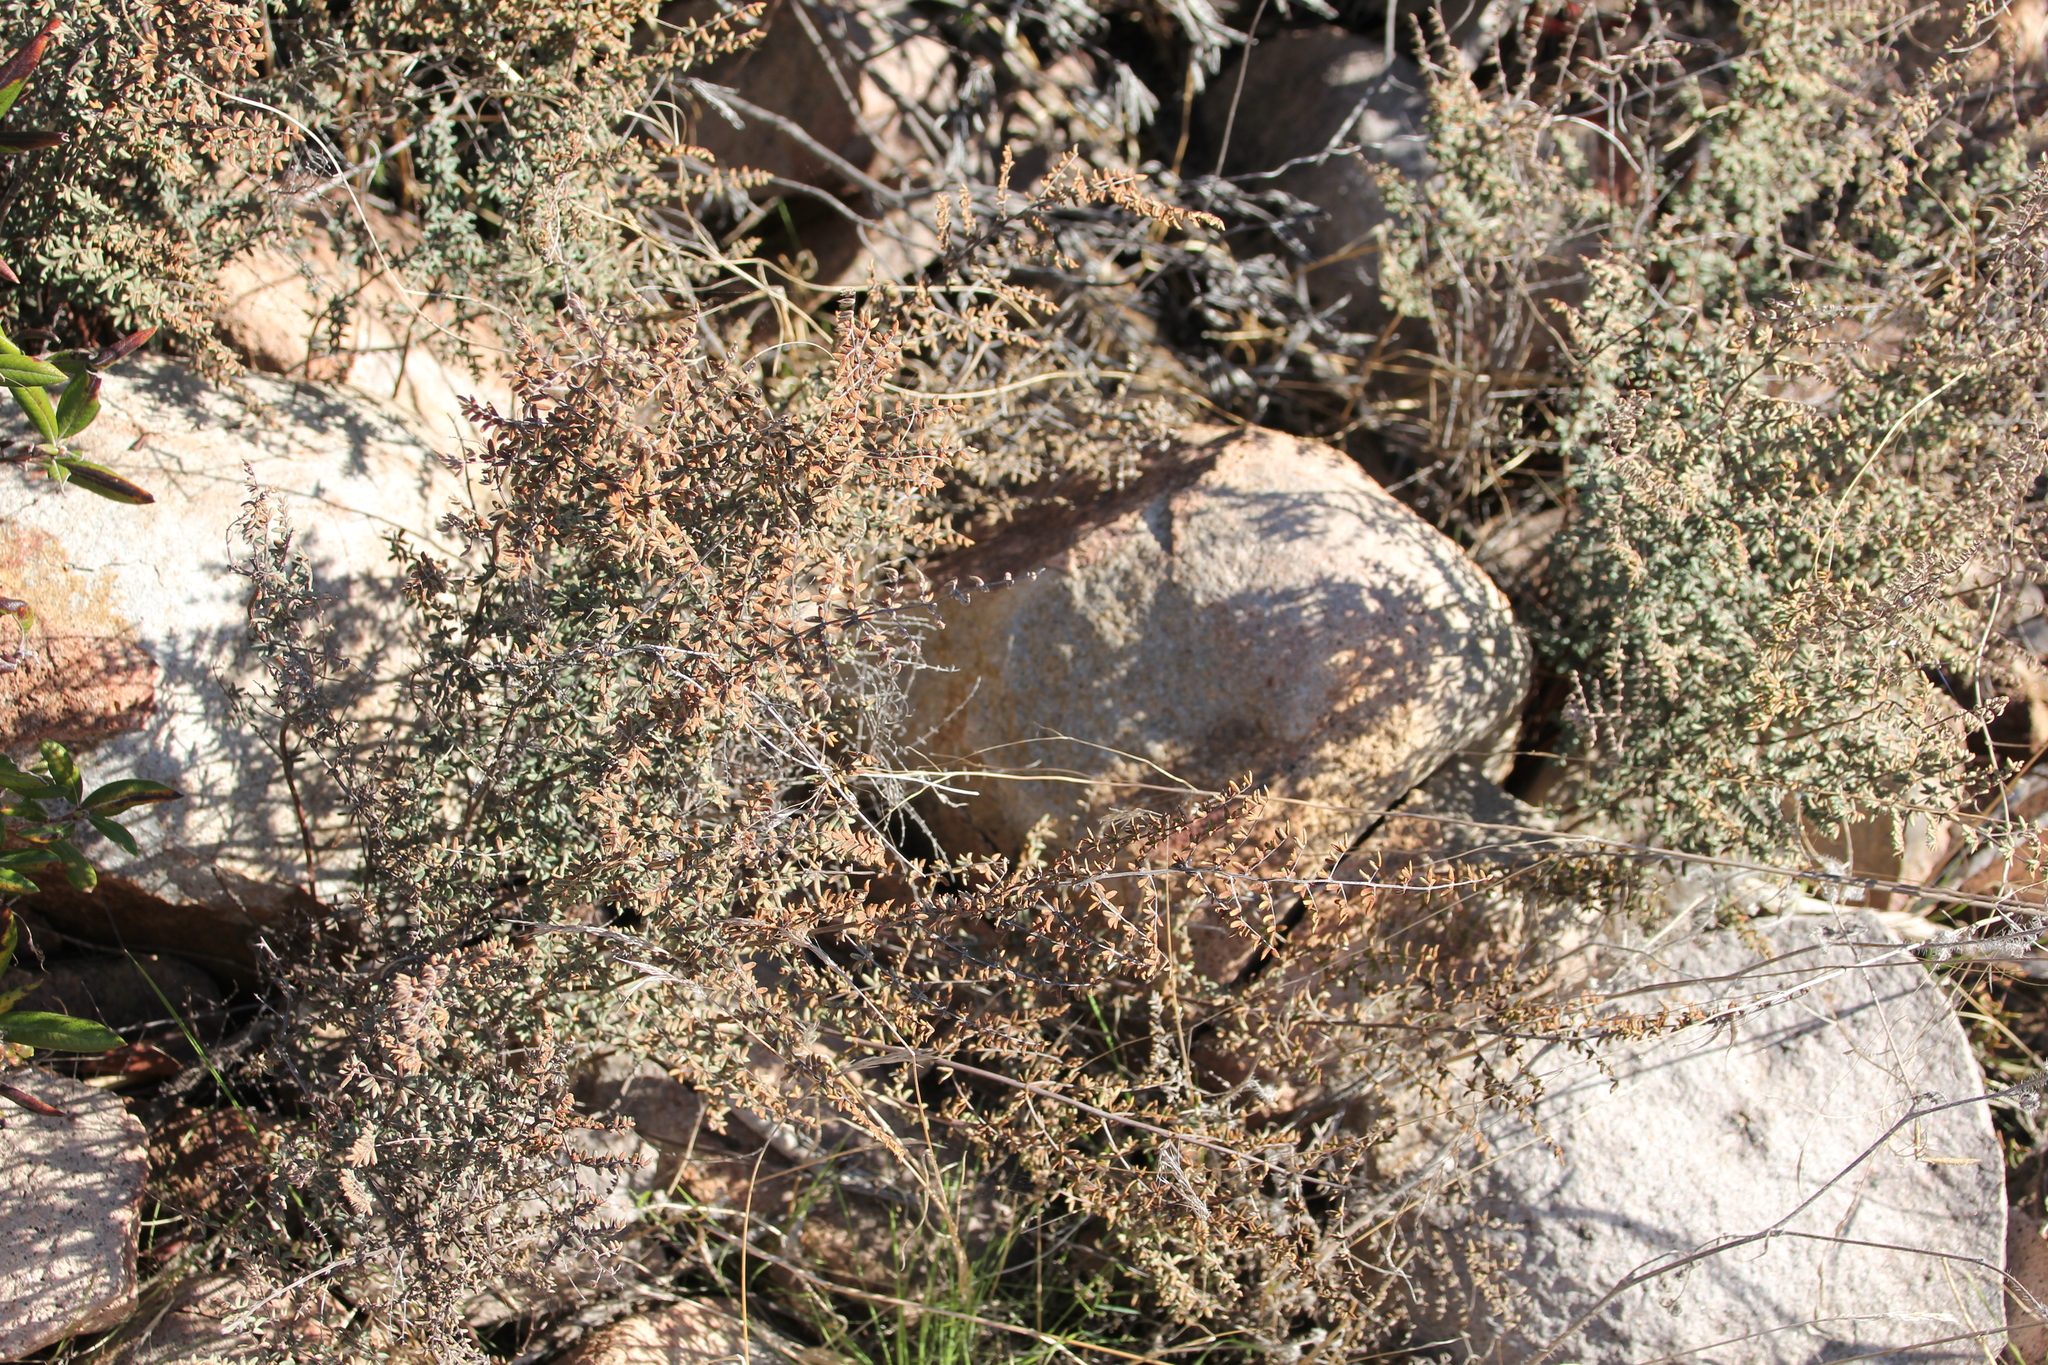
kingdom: Plantae
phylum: Tracheophyta
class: Polypodiopsida
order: Polypodiales
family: Pteridaceae
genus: Pellaea
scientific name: Pellaea mucronata
